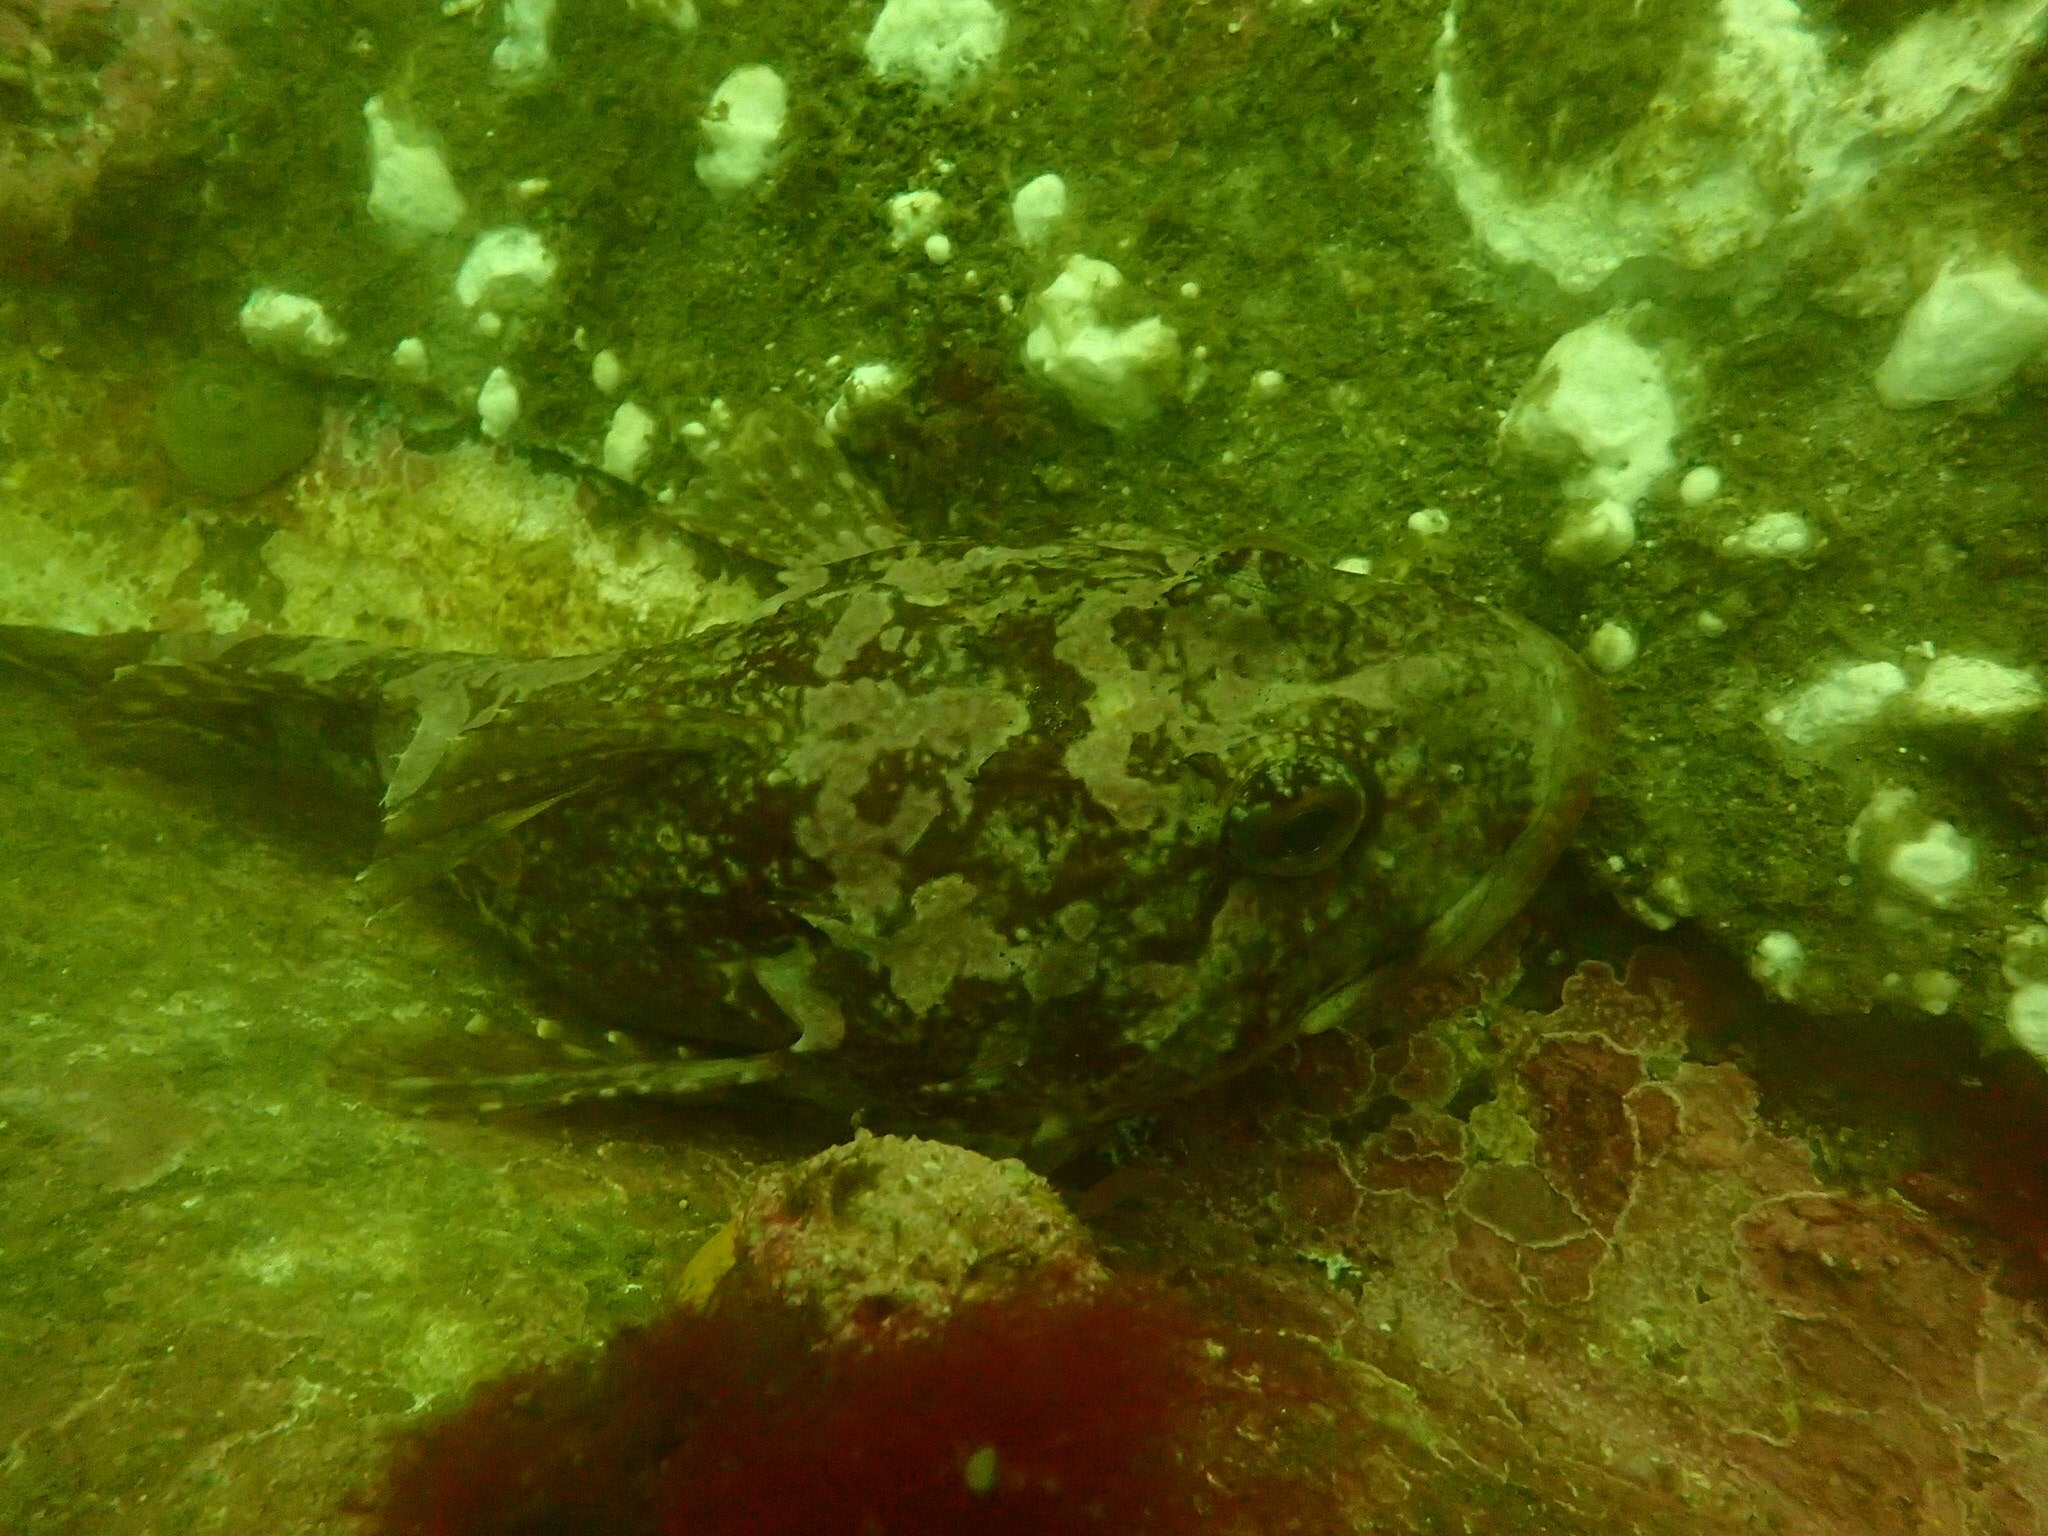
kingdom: Animalia
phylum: Chordata
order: Scorpaeniformes
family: Cottidae
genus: Myoxocephalus
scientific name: Myoxocephalus scorpius
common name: Shorthorn sculpin
